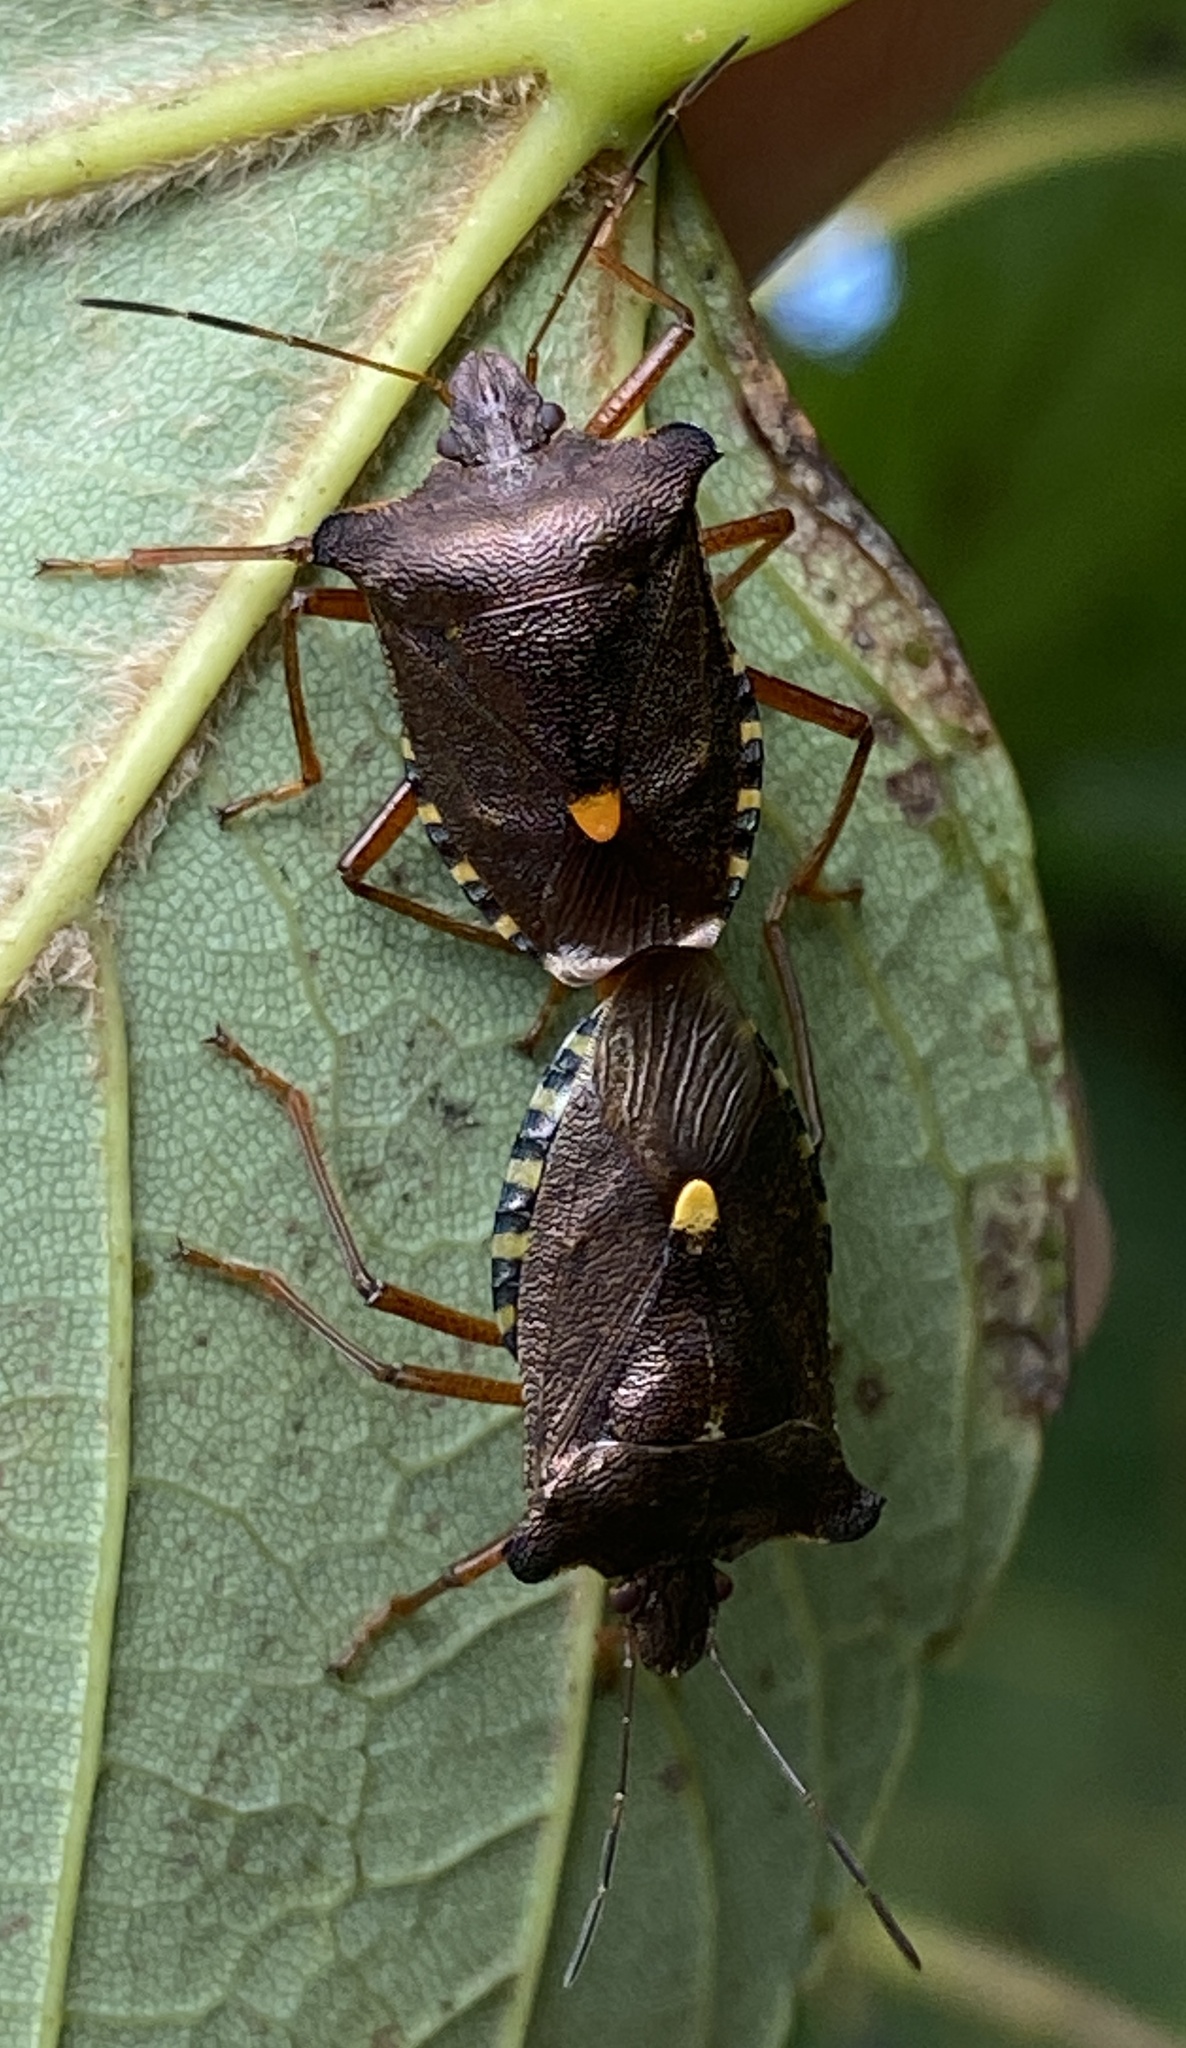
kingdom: Animalia
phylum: Arthropoda
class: Insecta
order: Hemiptera
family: Pentatomidae
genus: Pentatoma
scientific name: Pentatoma rufipes
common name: Forest bug
